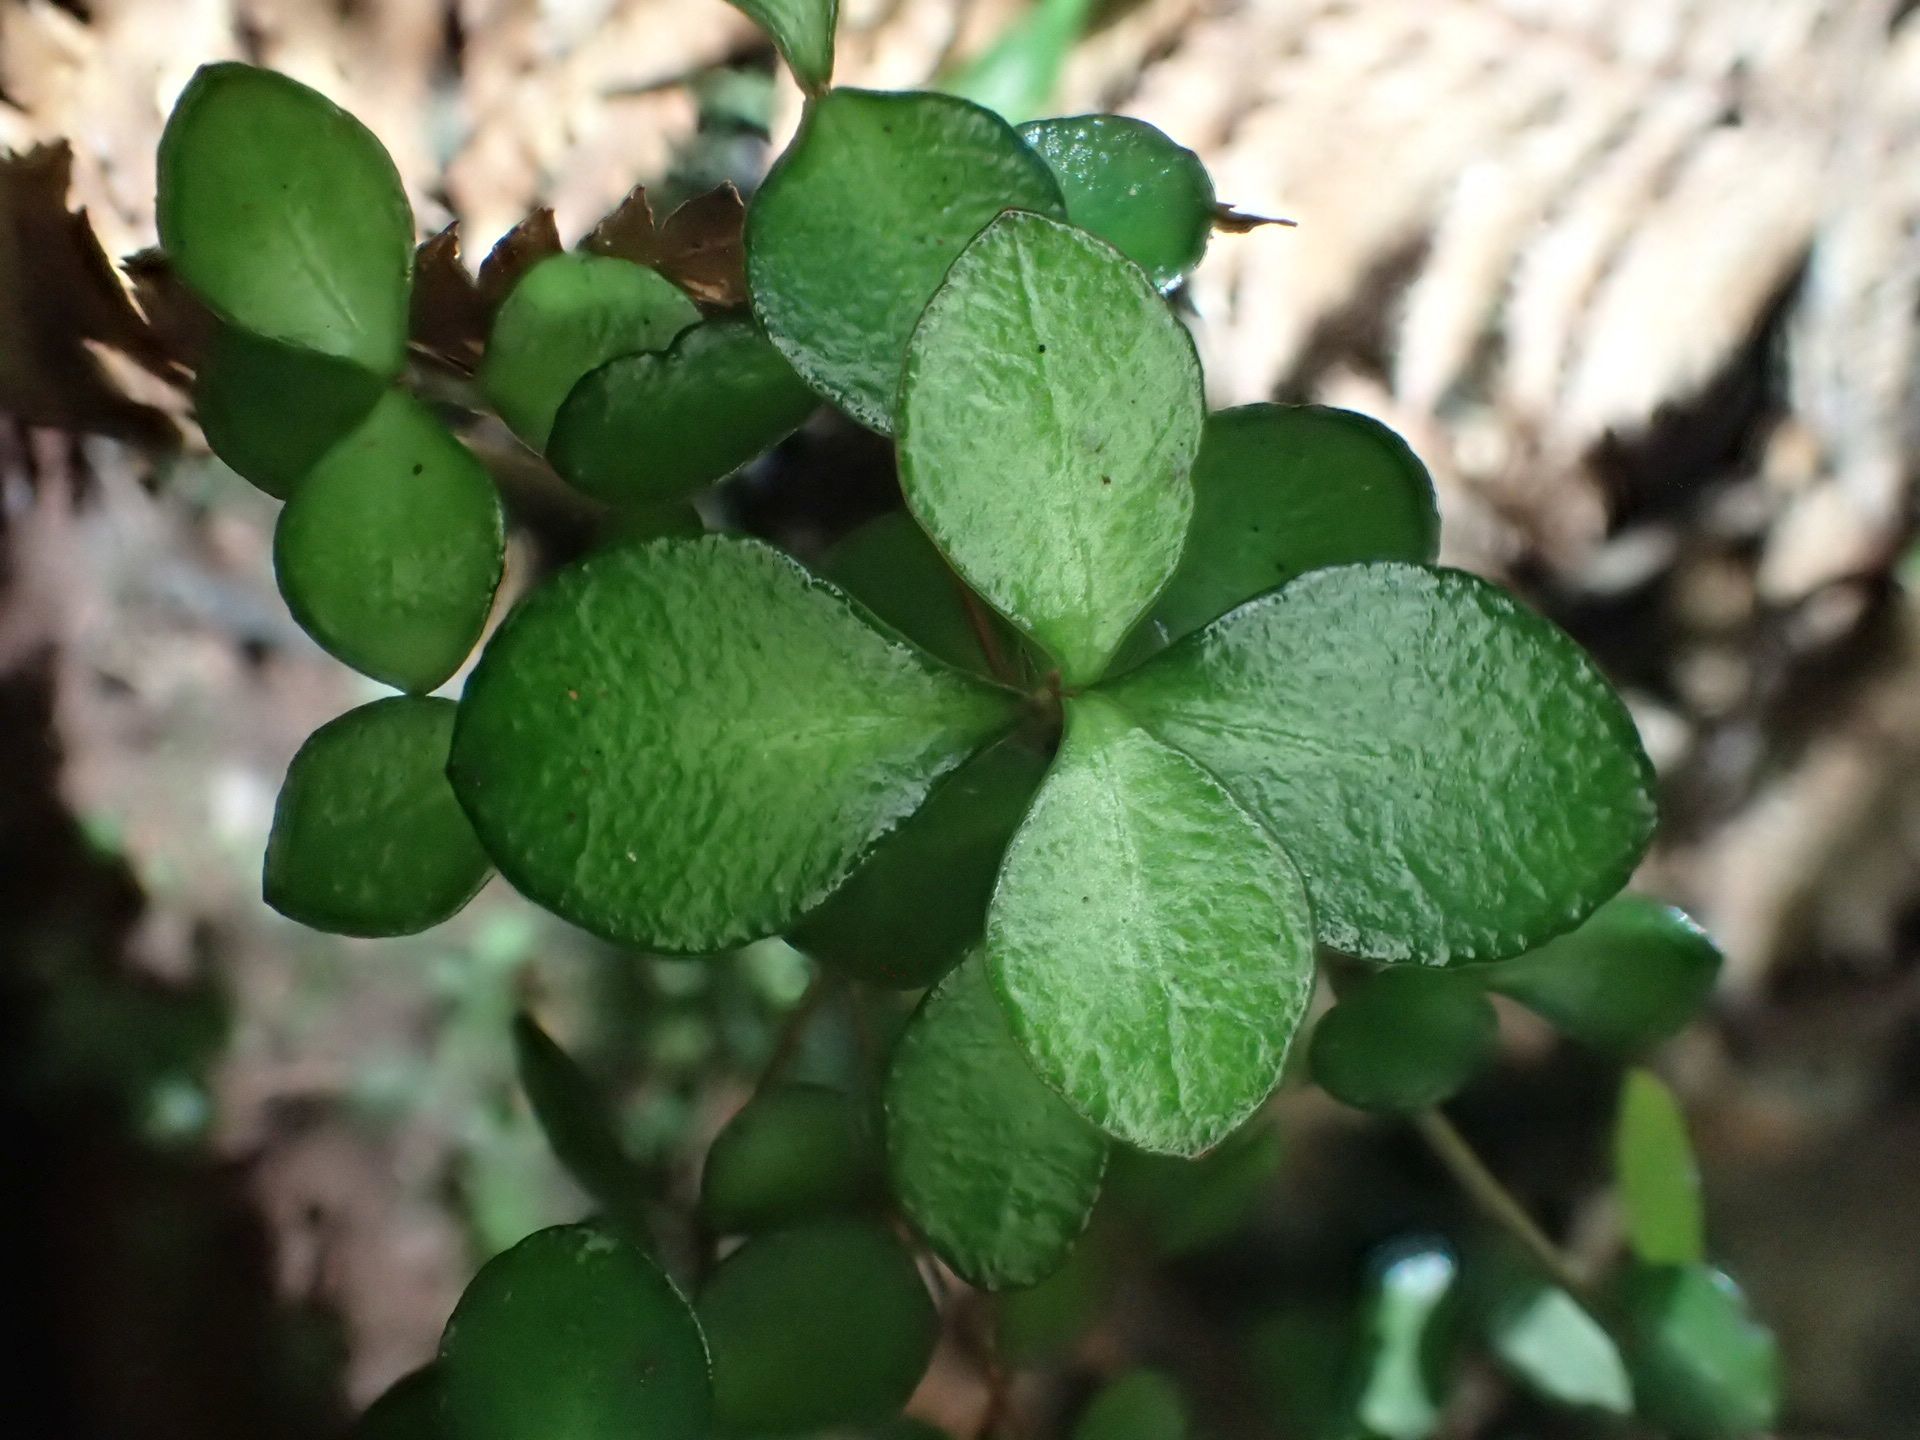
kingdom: Plantae
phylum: Tracheophyta
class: Magnoliopsida
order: Myrtales
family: Myrtaceae
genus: Neomyrtus
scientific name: Neomyrtus pedunculata
